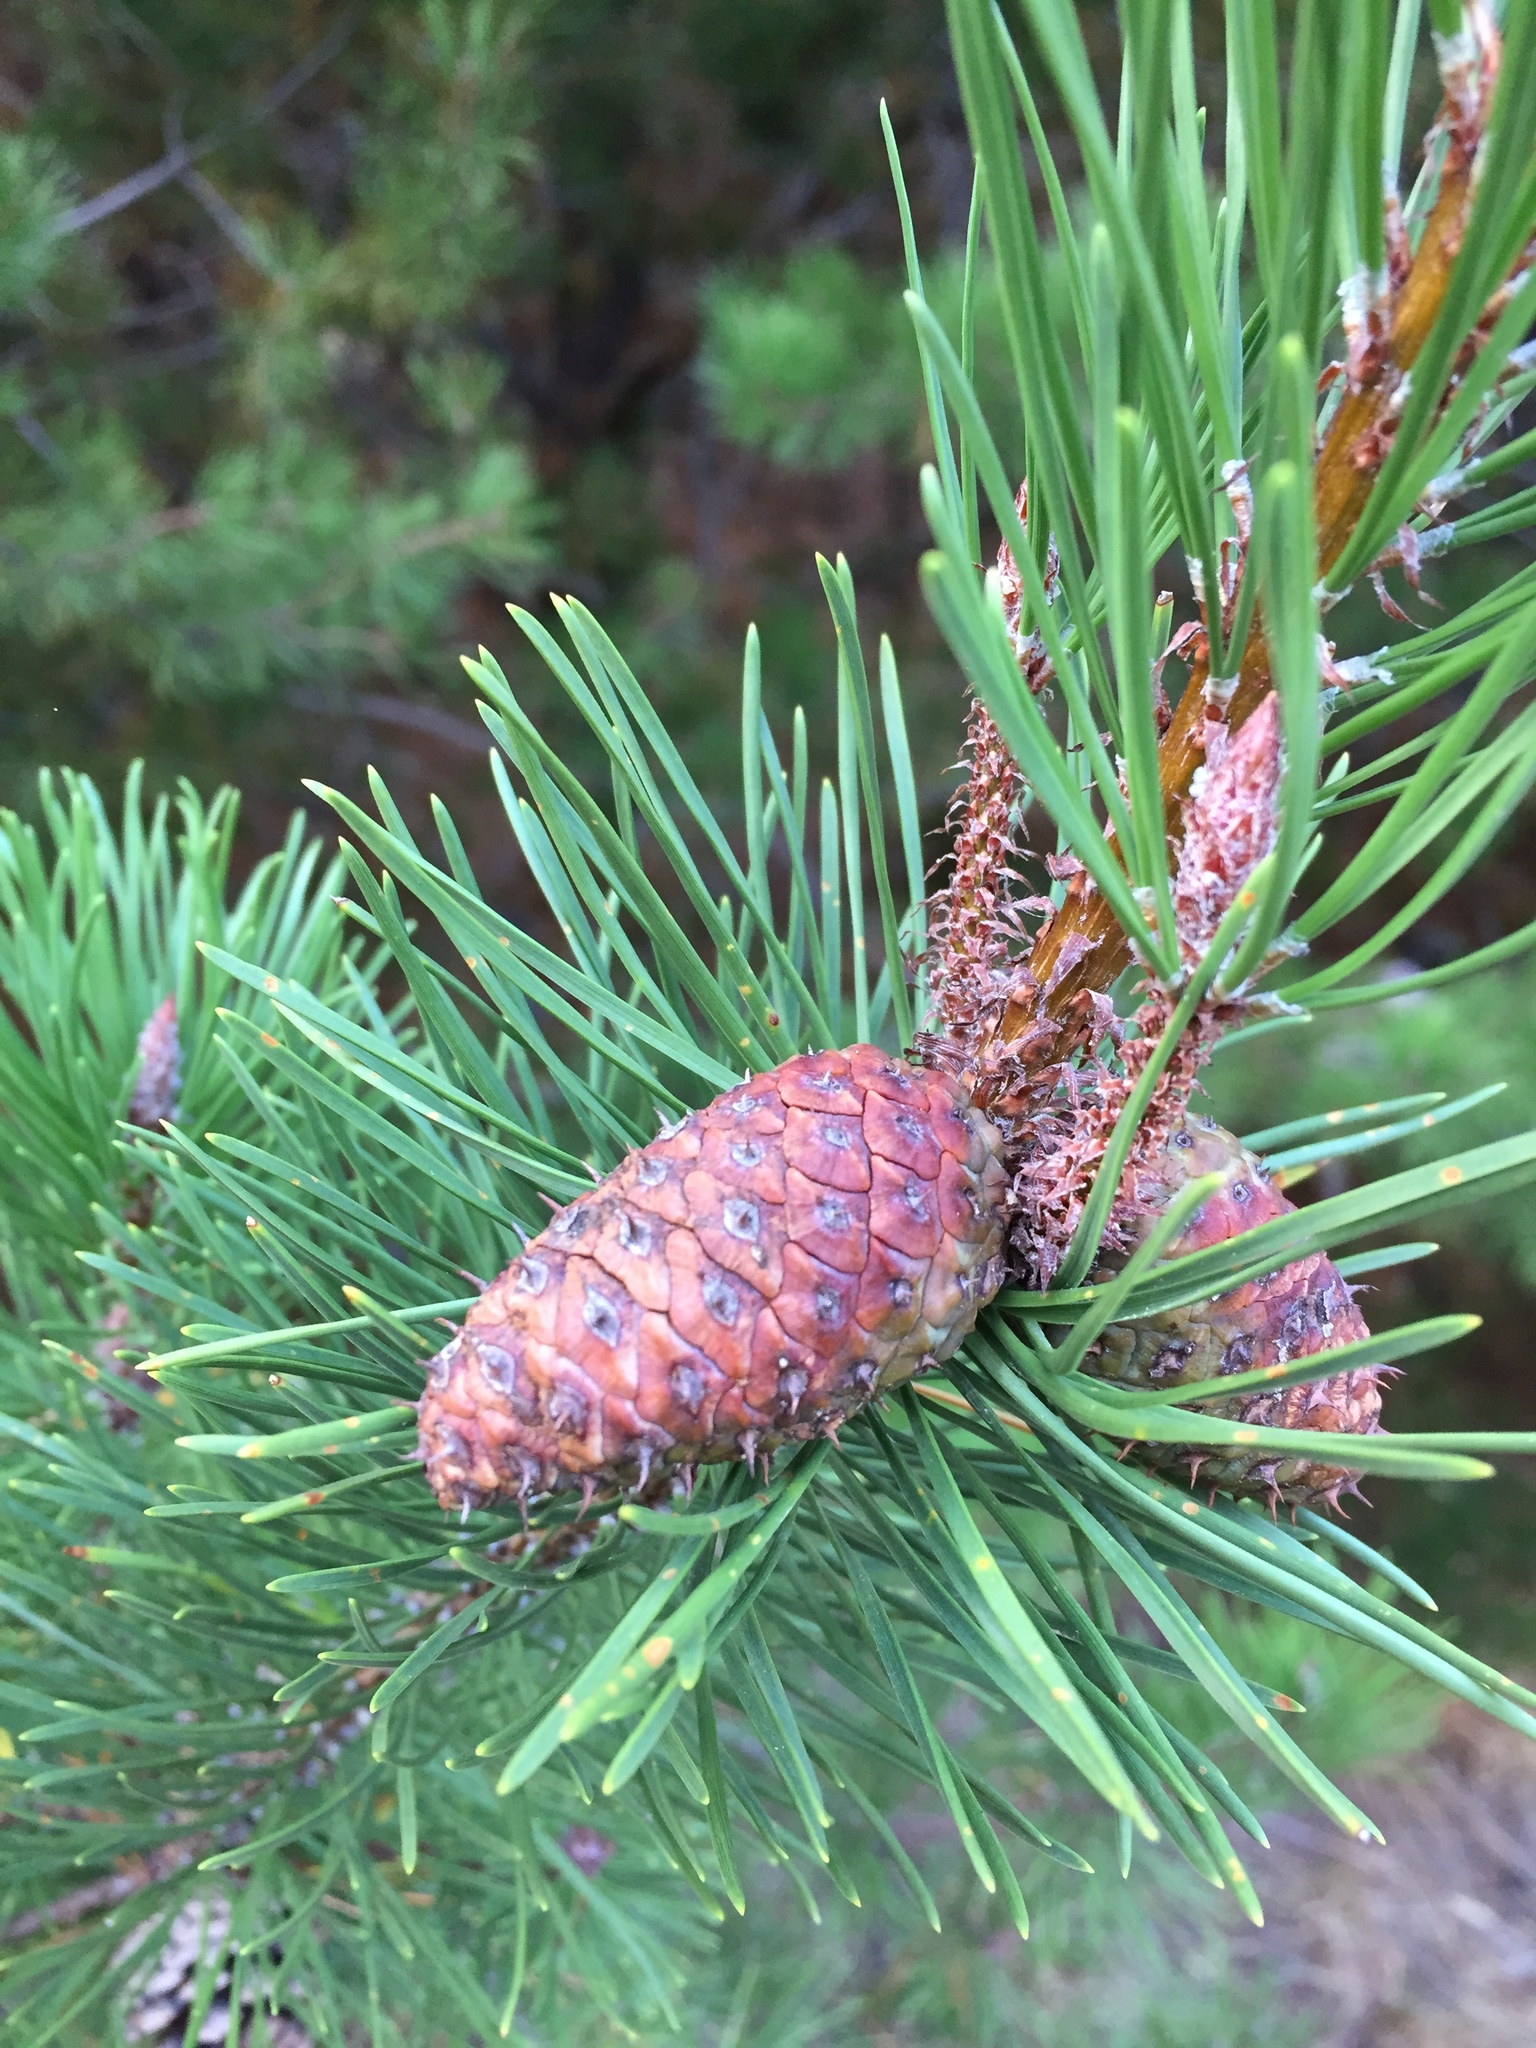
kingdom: Plantae
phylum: Tracheophyta
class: Pinopsida
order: Pinales
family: Pinaceae
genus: Pinus
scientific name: Pinus contorta
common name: Lodgepole pine
